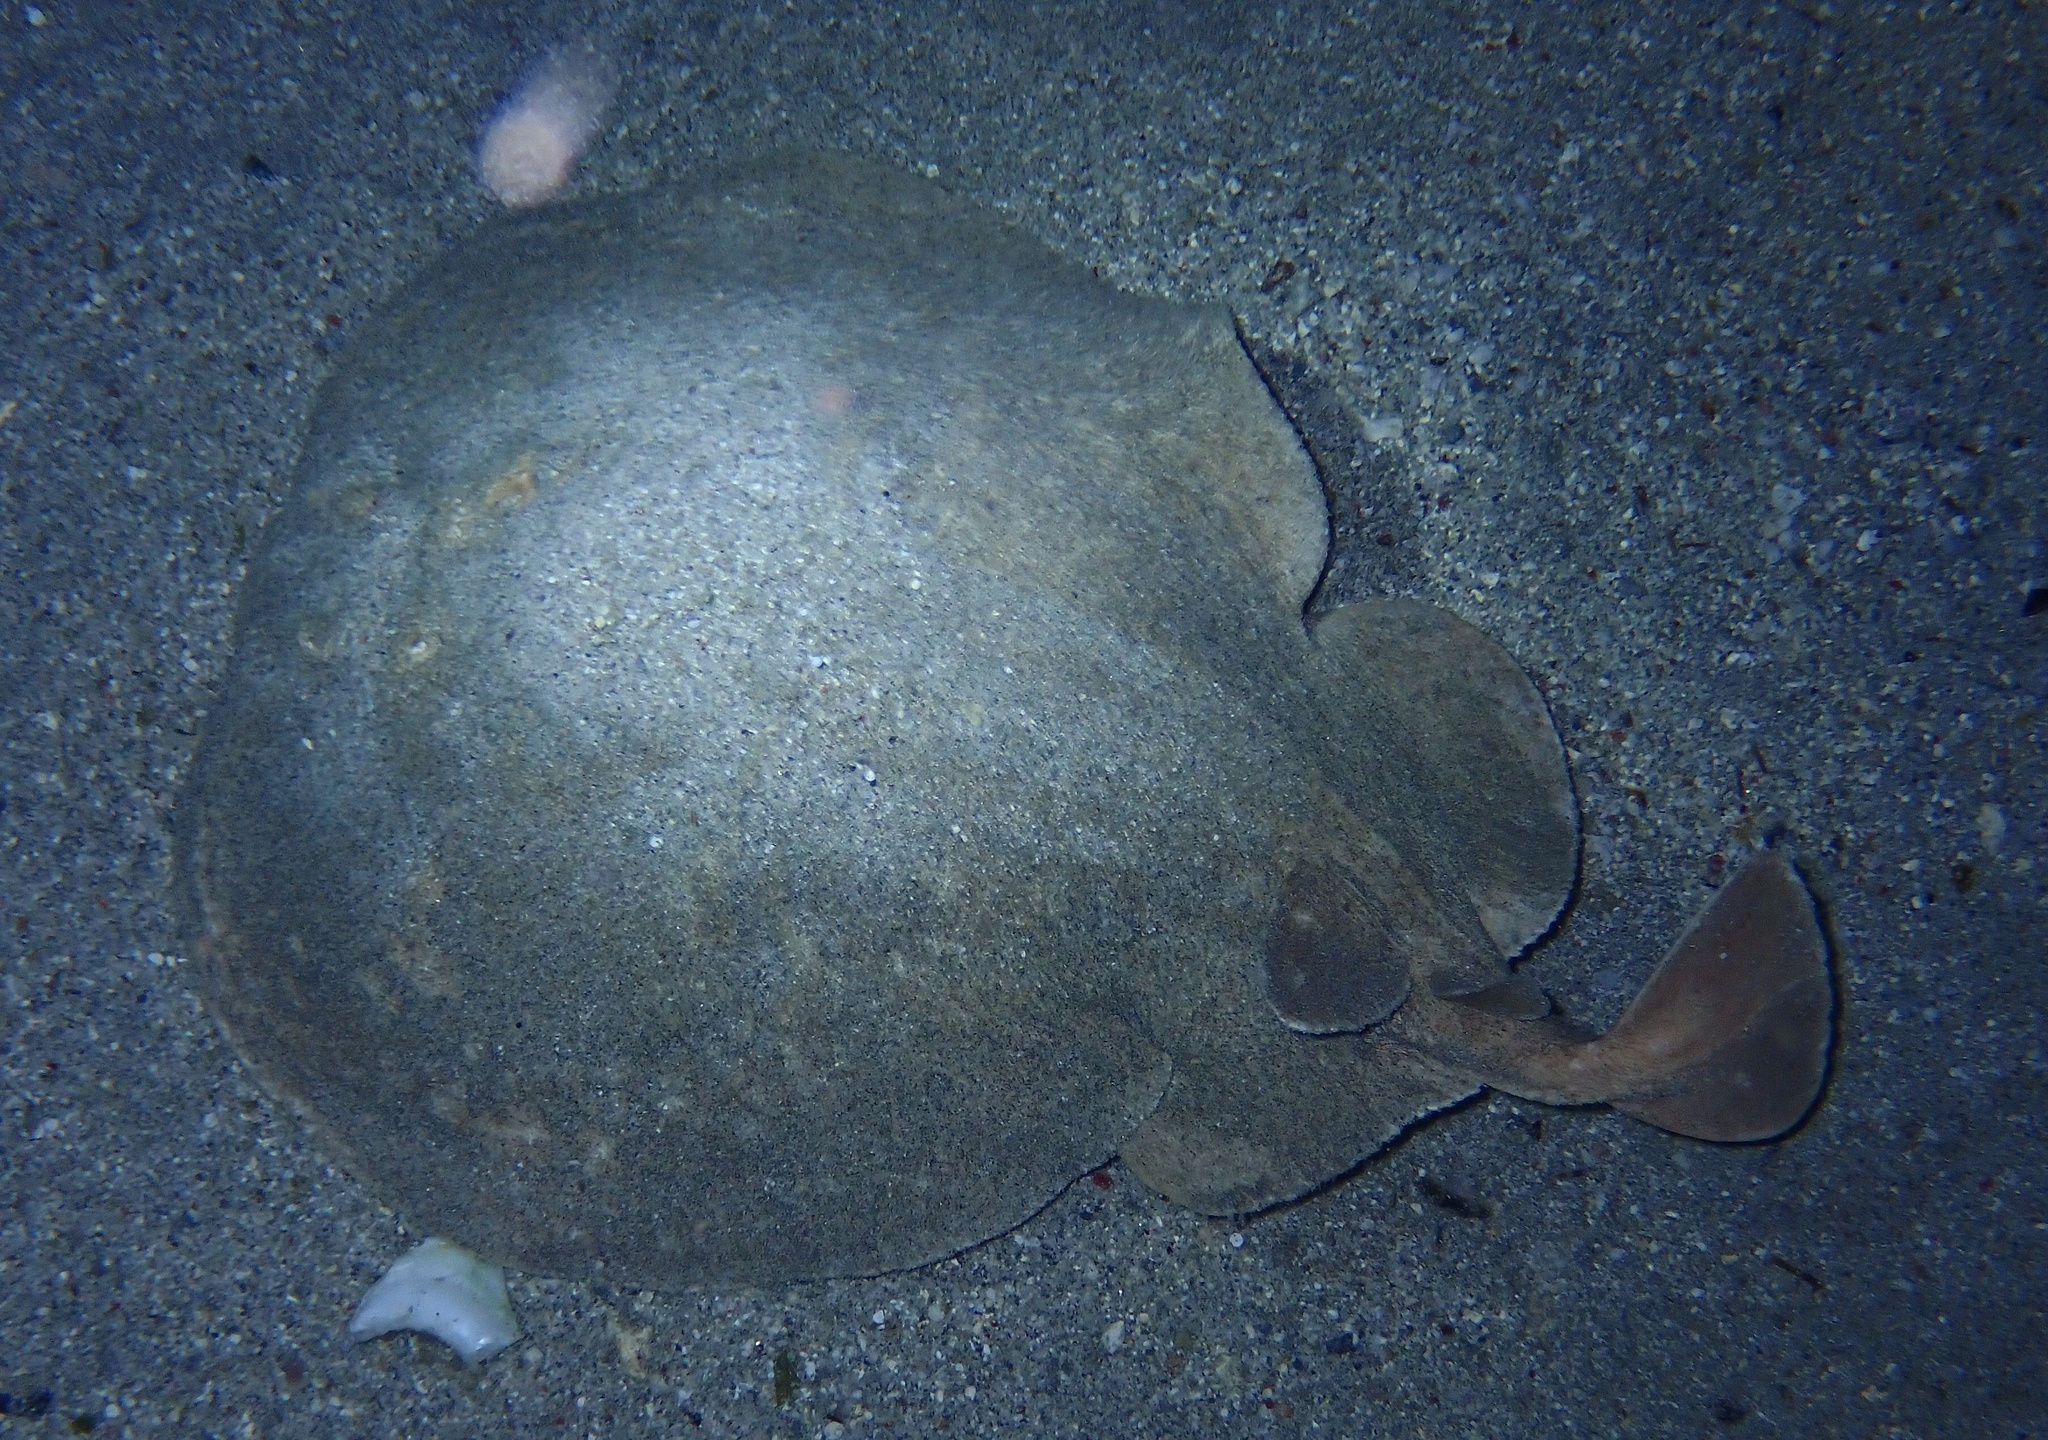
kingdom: Animalia
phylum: Chordata
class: Elasmobranchii
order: Torpediniformes
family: Torpedinidae
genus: Torpedo
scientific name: Torpedo panthera
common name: Leopard torpedo
